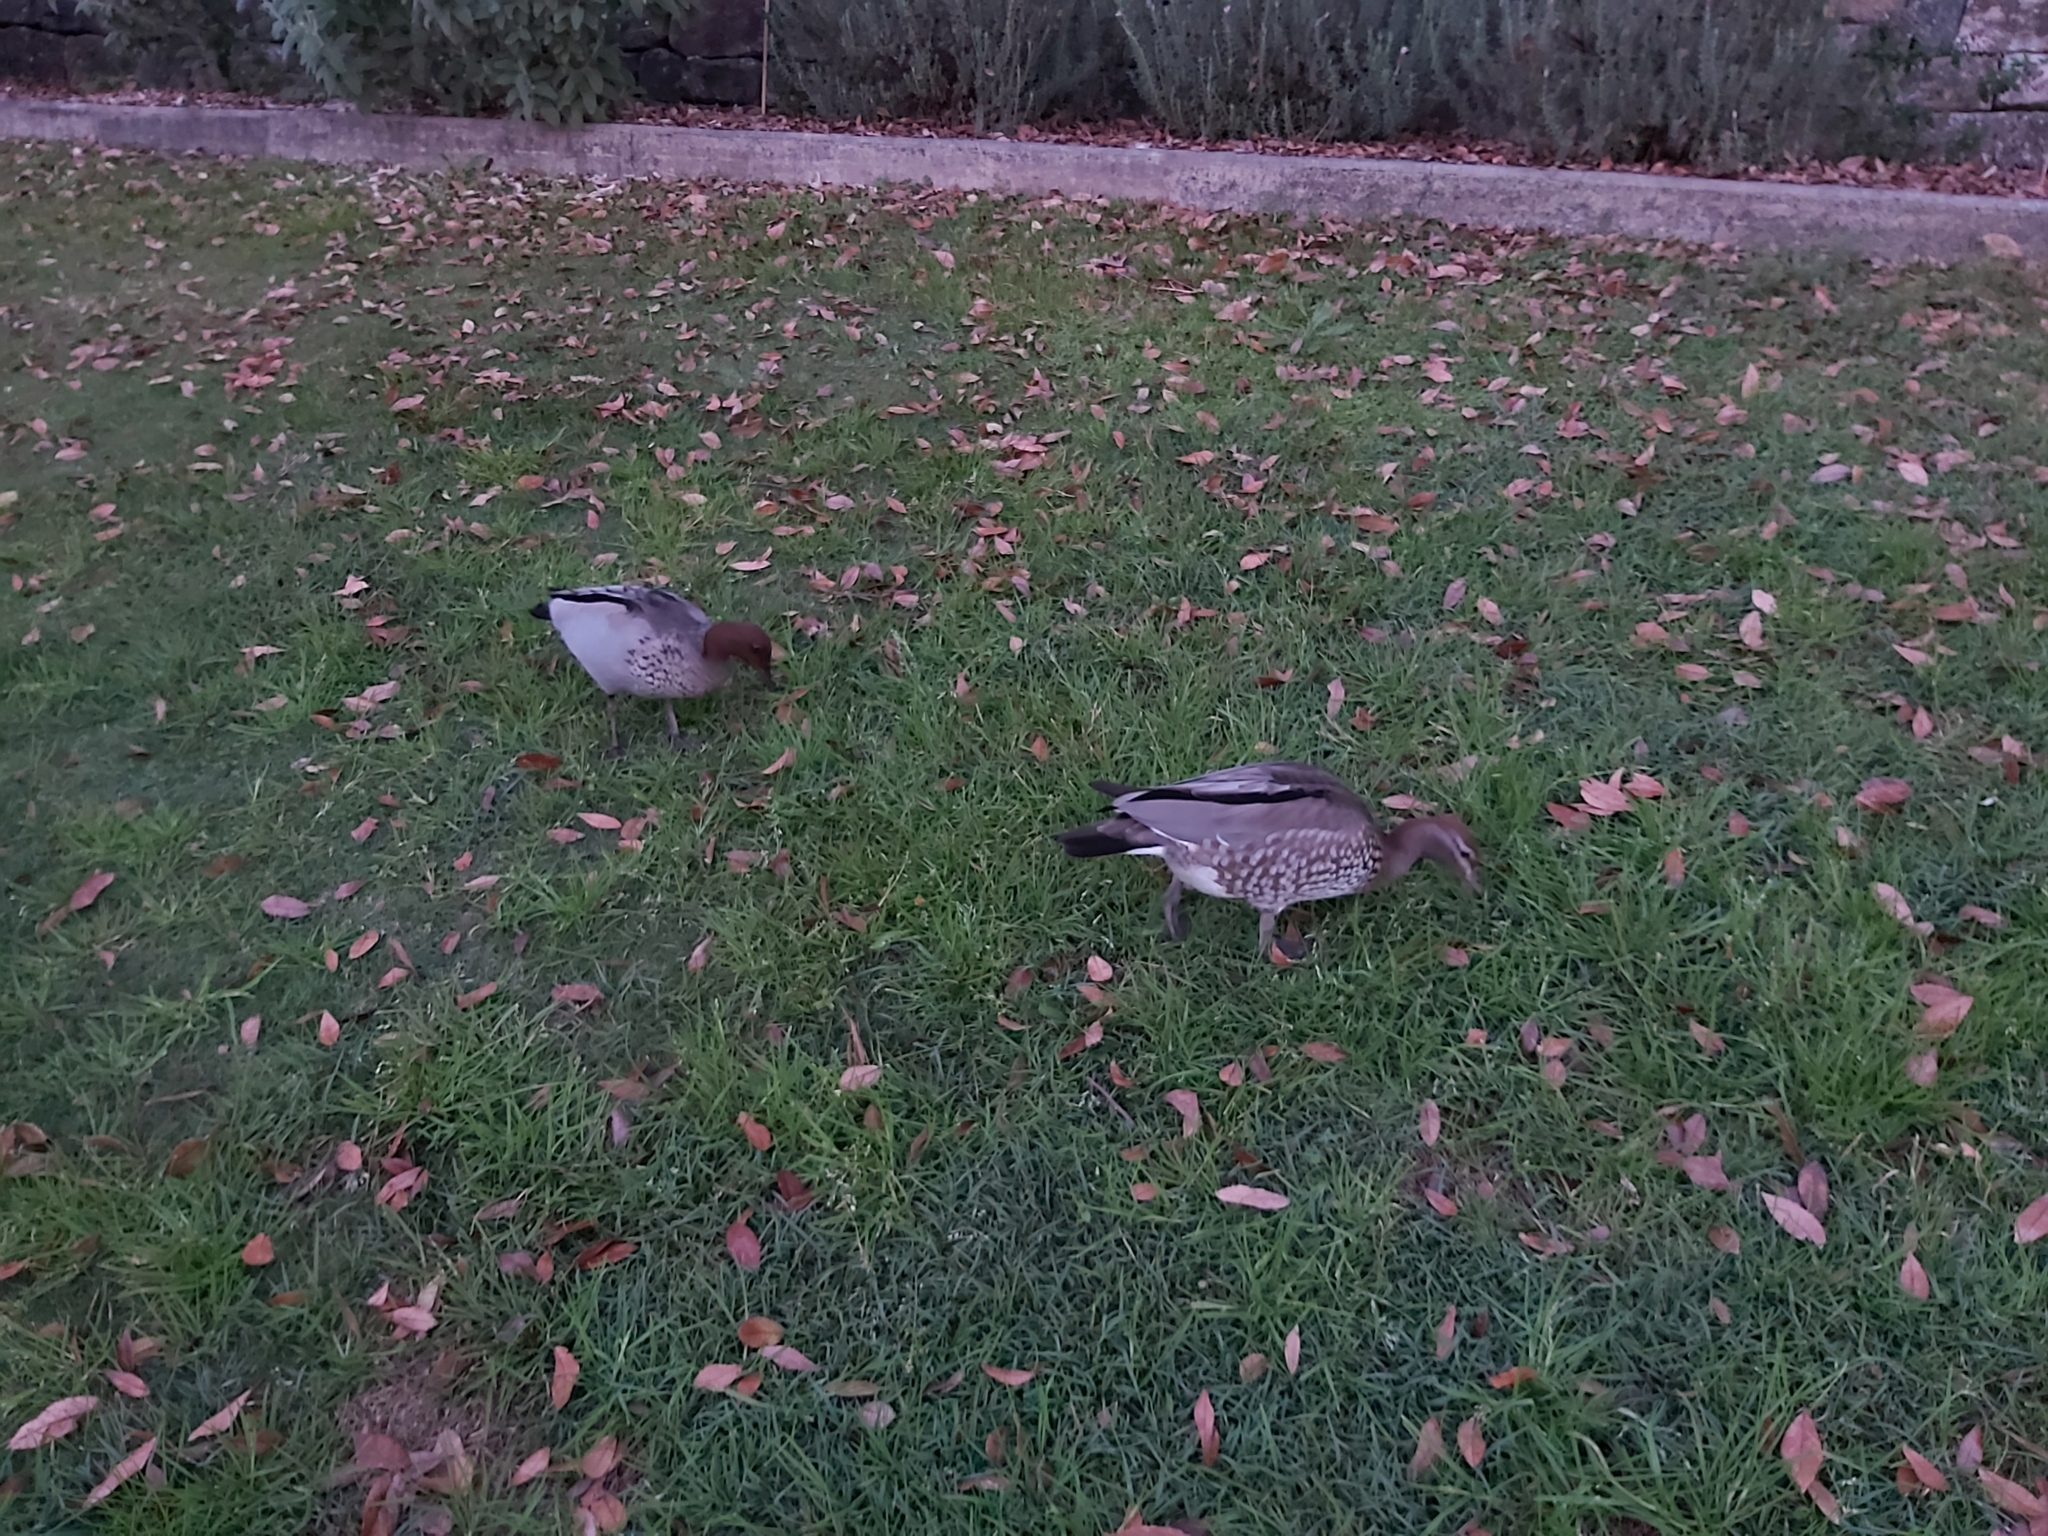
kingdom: Animalia
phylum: Chordata
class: Aves
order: Anseriformes
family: Anatidae
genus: Chenonetta
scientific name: Chenonetta jubata
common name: Maned duck
